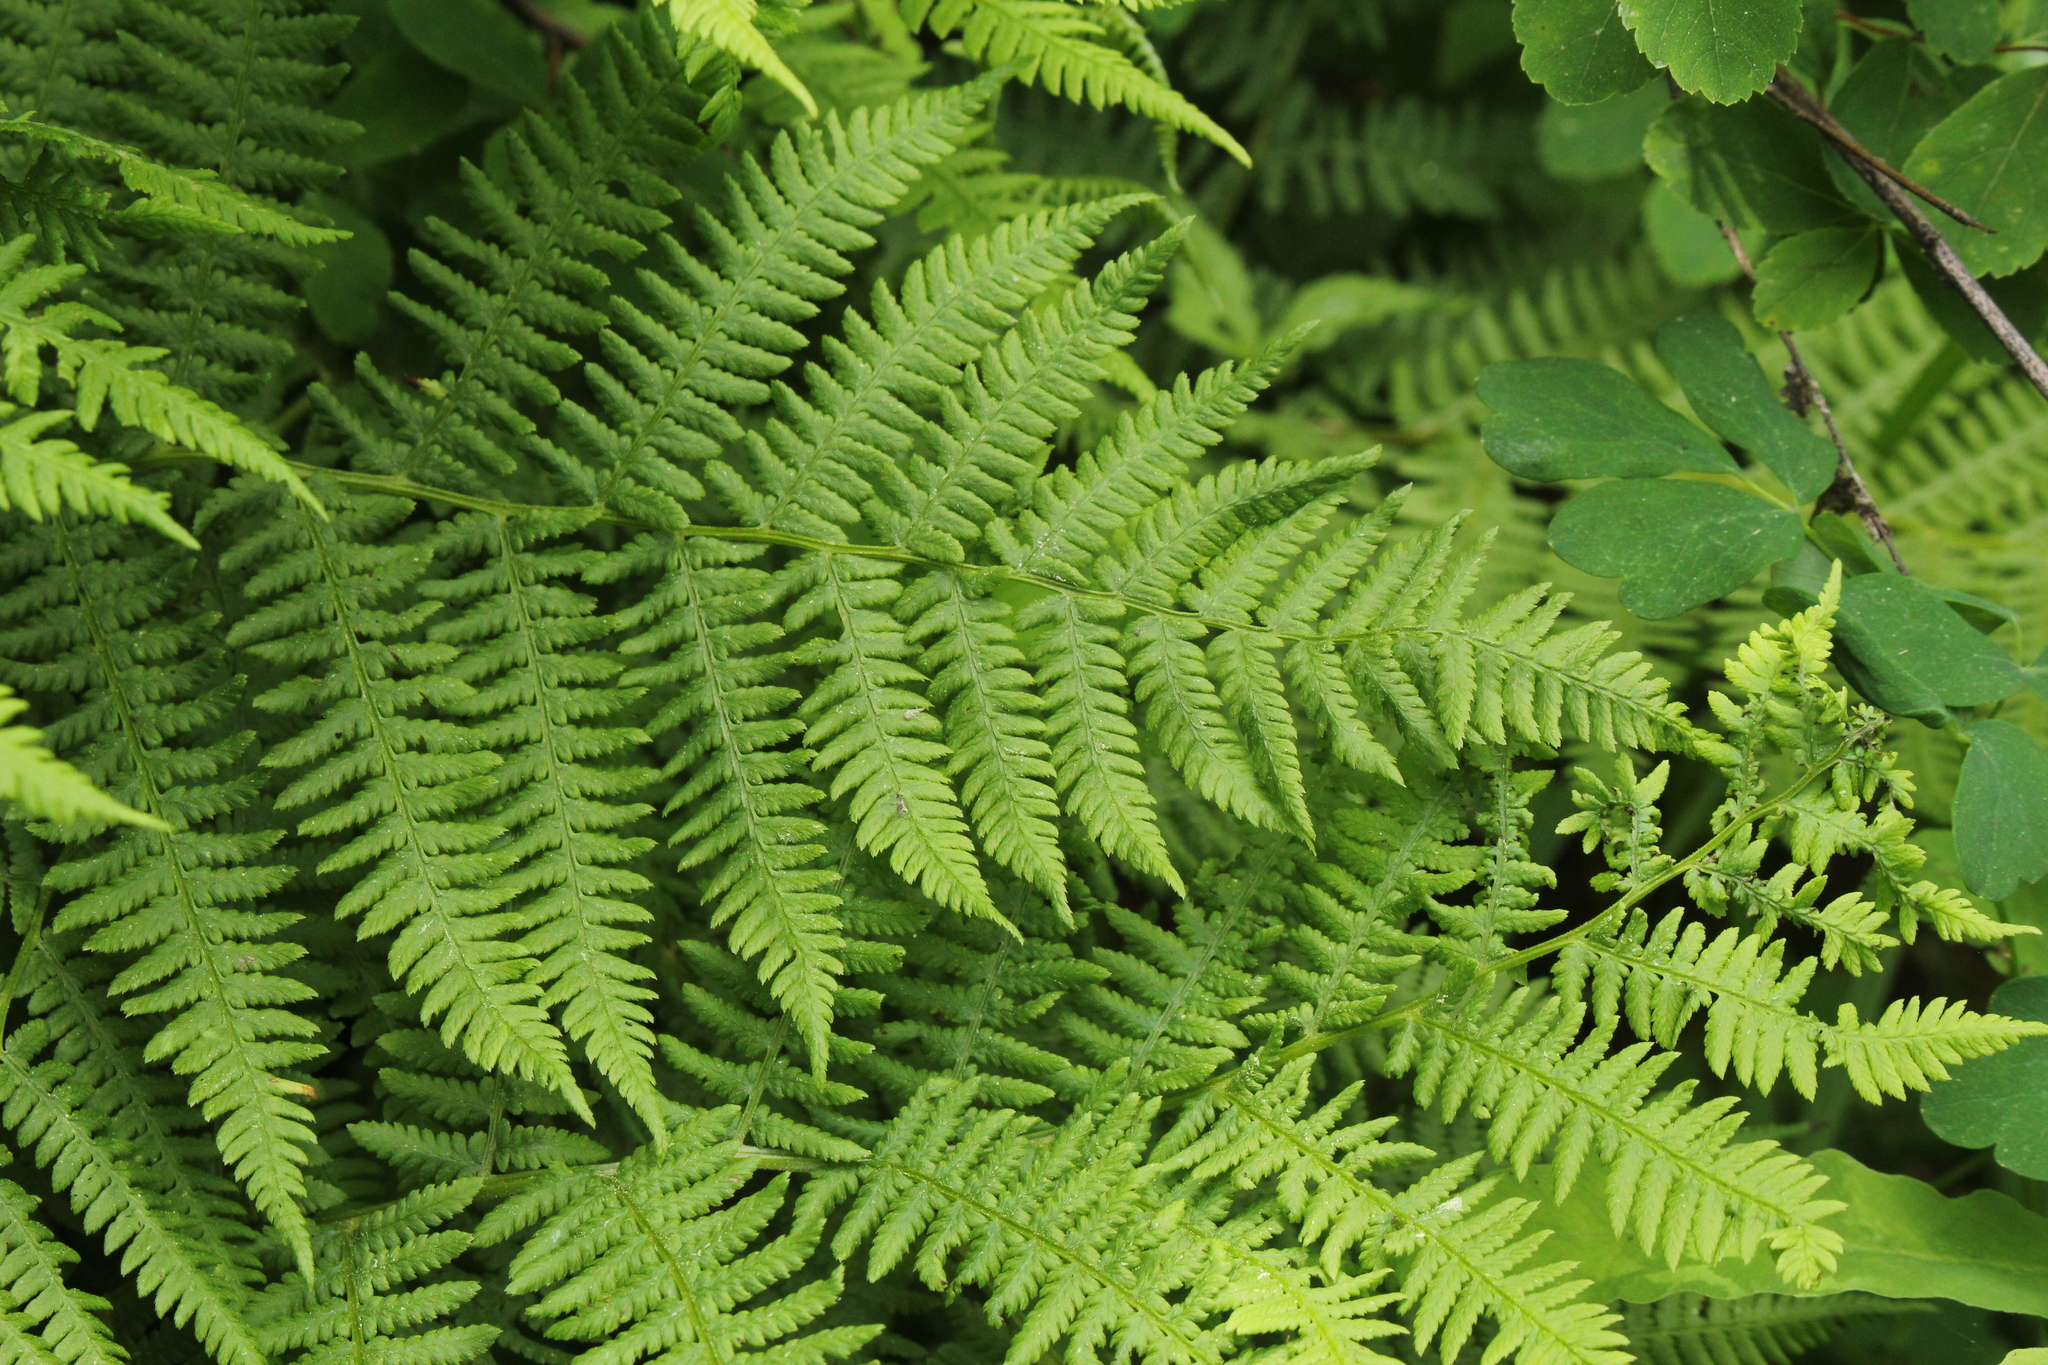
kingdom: Plantae
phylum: Tracheophyta
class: Polypodiopsida
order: Polypodiales
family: Athyriaceae
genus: Athyrium
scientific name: Athyrium angustum
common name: Northern lady fern
